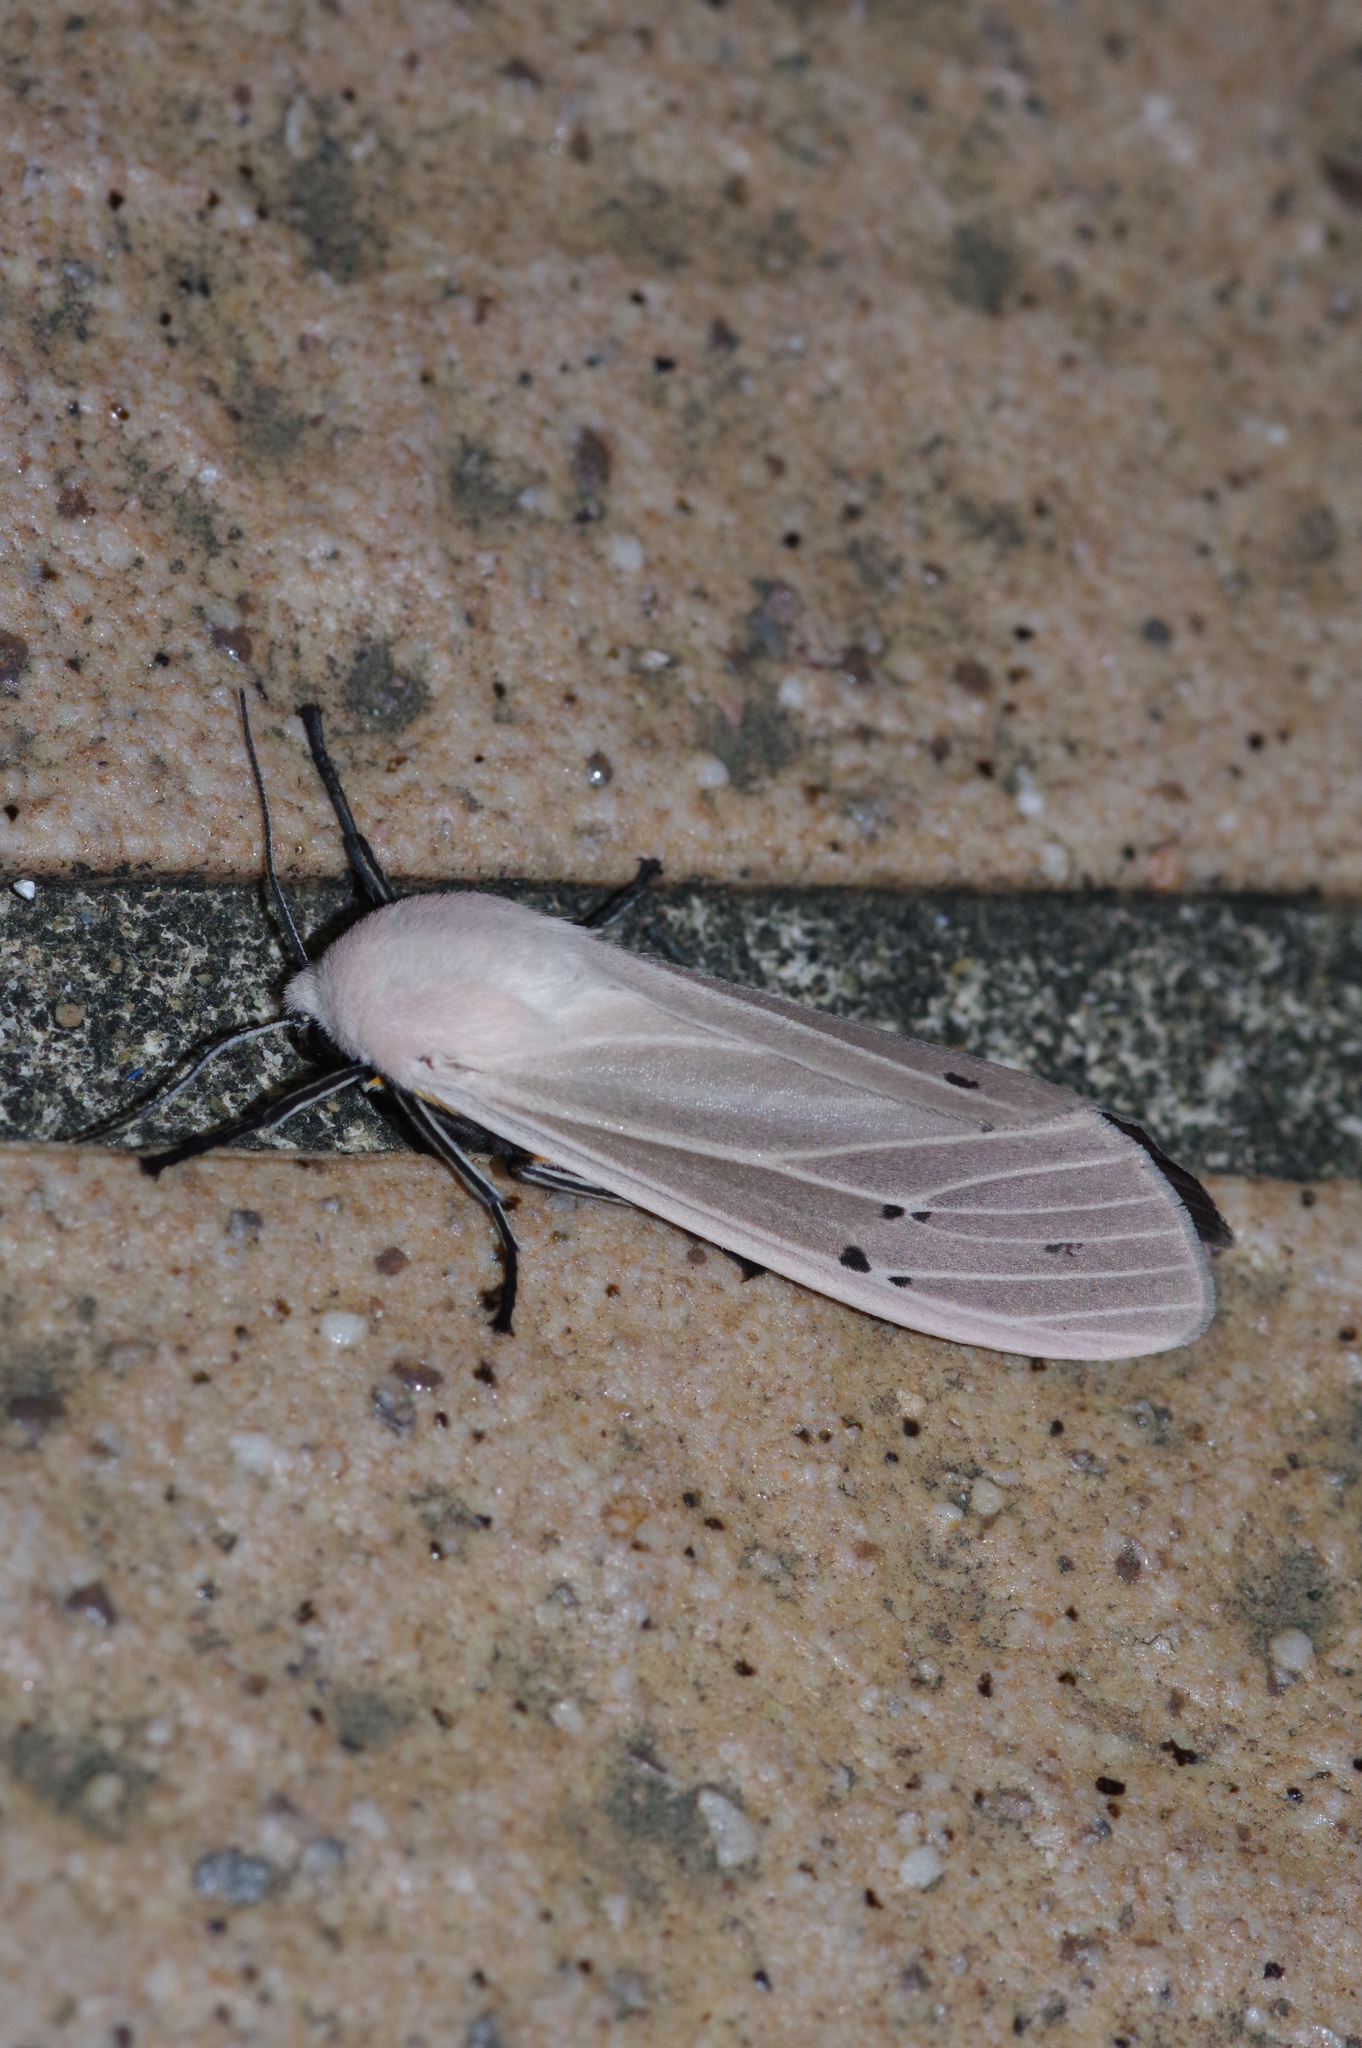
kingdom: Animalia
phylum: Arthropoda
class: Insecta
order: Lepidoptera
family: Erebidae
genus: Creatonotos
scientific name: Creatonotos transiens
